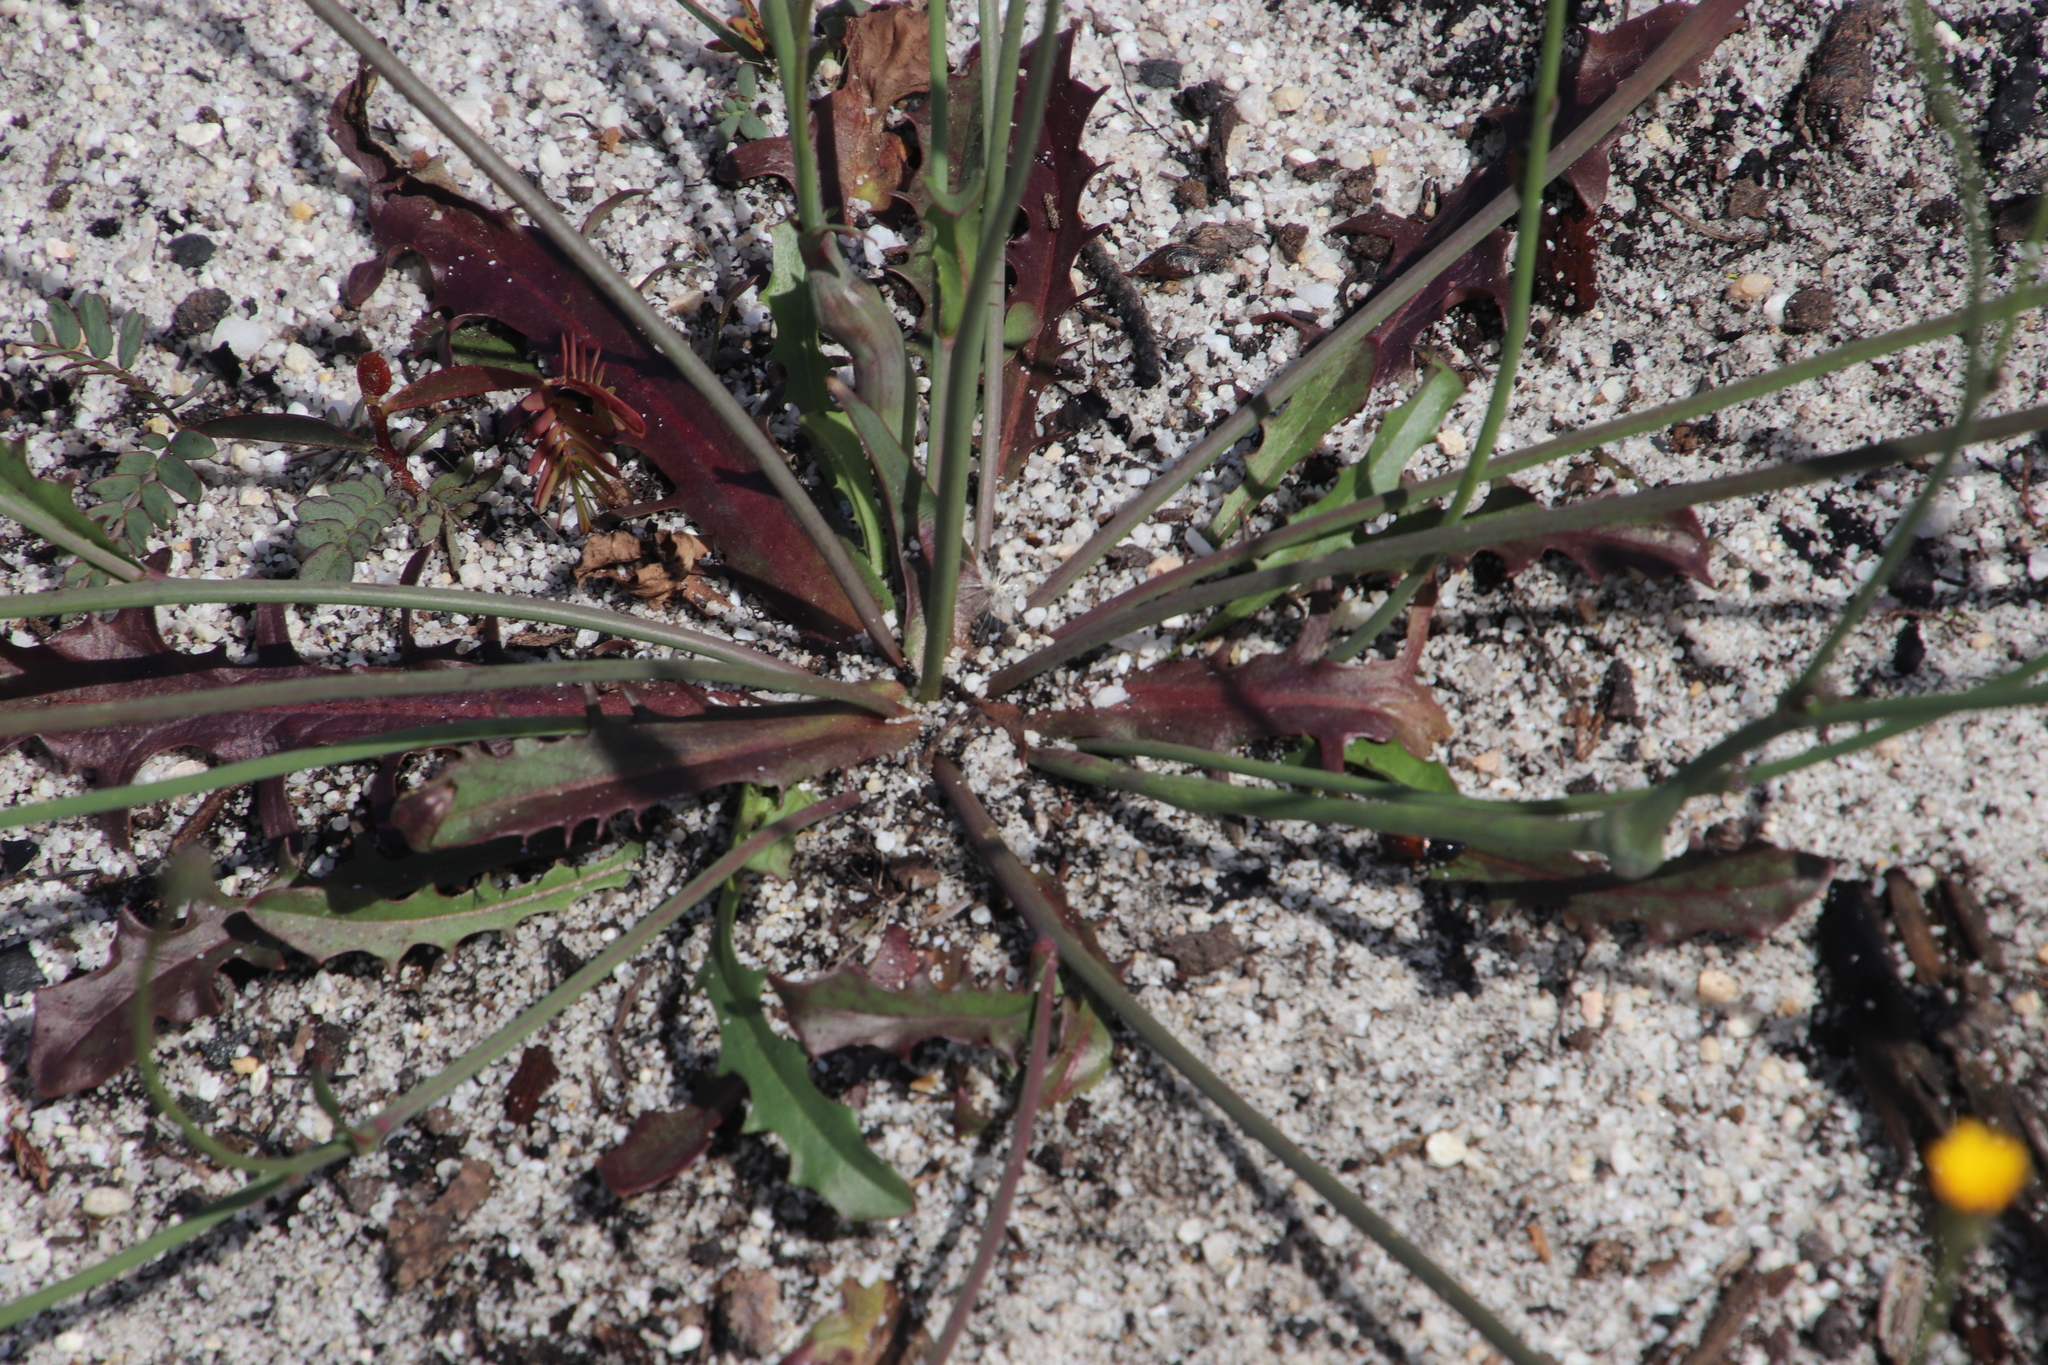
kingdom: Plantae
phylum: Tracheophyta
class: Magnoliopsida
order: Asterales
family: Asteraceae
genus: Hypochaeris
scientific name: Hypochaeris glabra
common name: Smooth catsear
